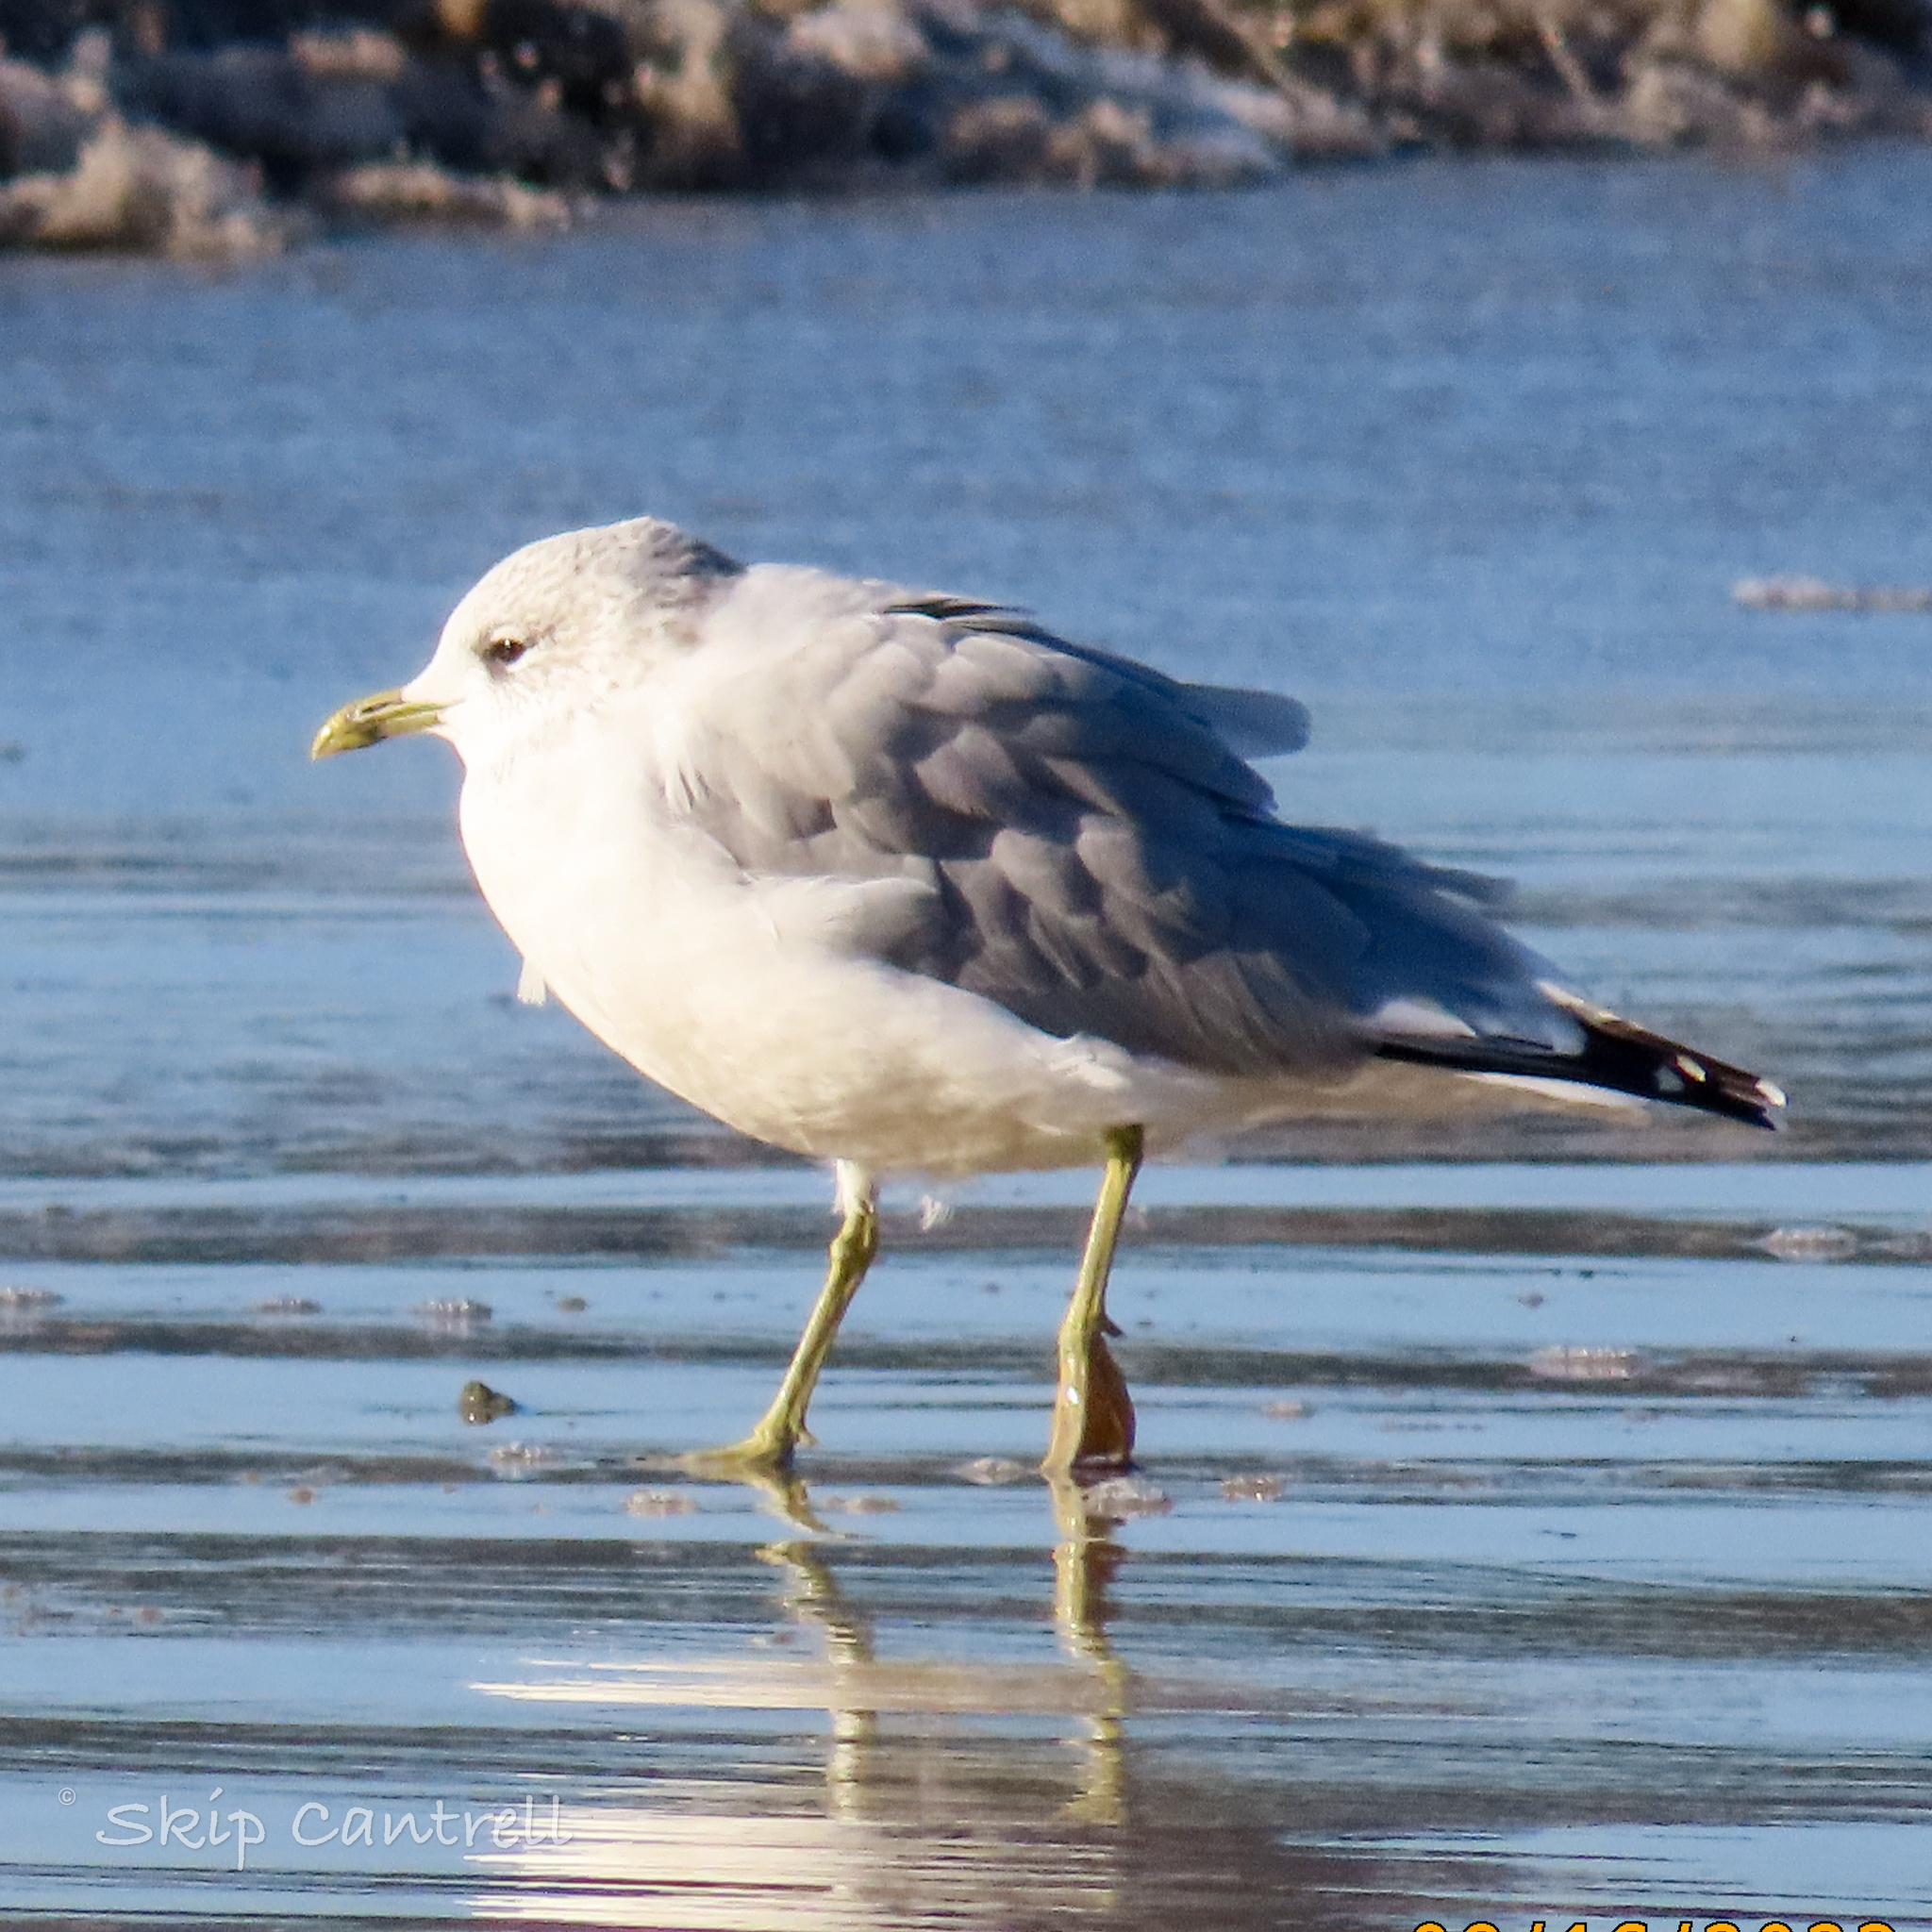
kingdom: Animalia
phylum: Chordata
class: Aves
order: Charadriiformes
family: Laridae
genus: Larus
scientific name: Larus canus
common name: Mew gull
